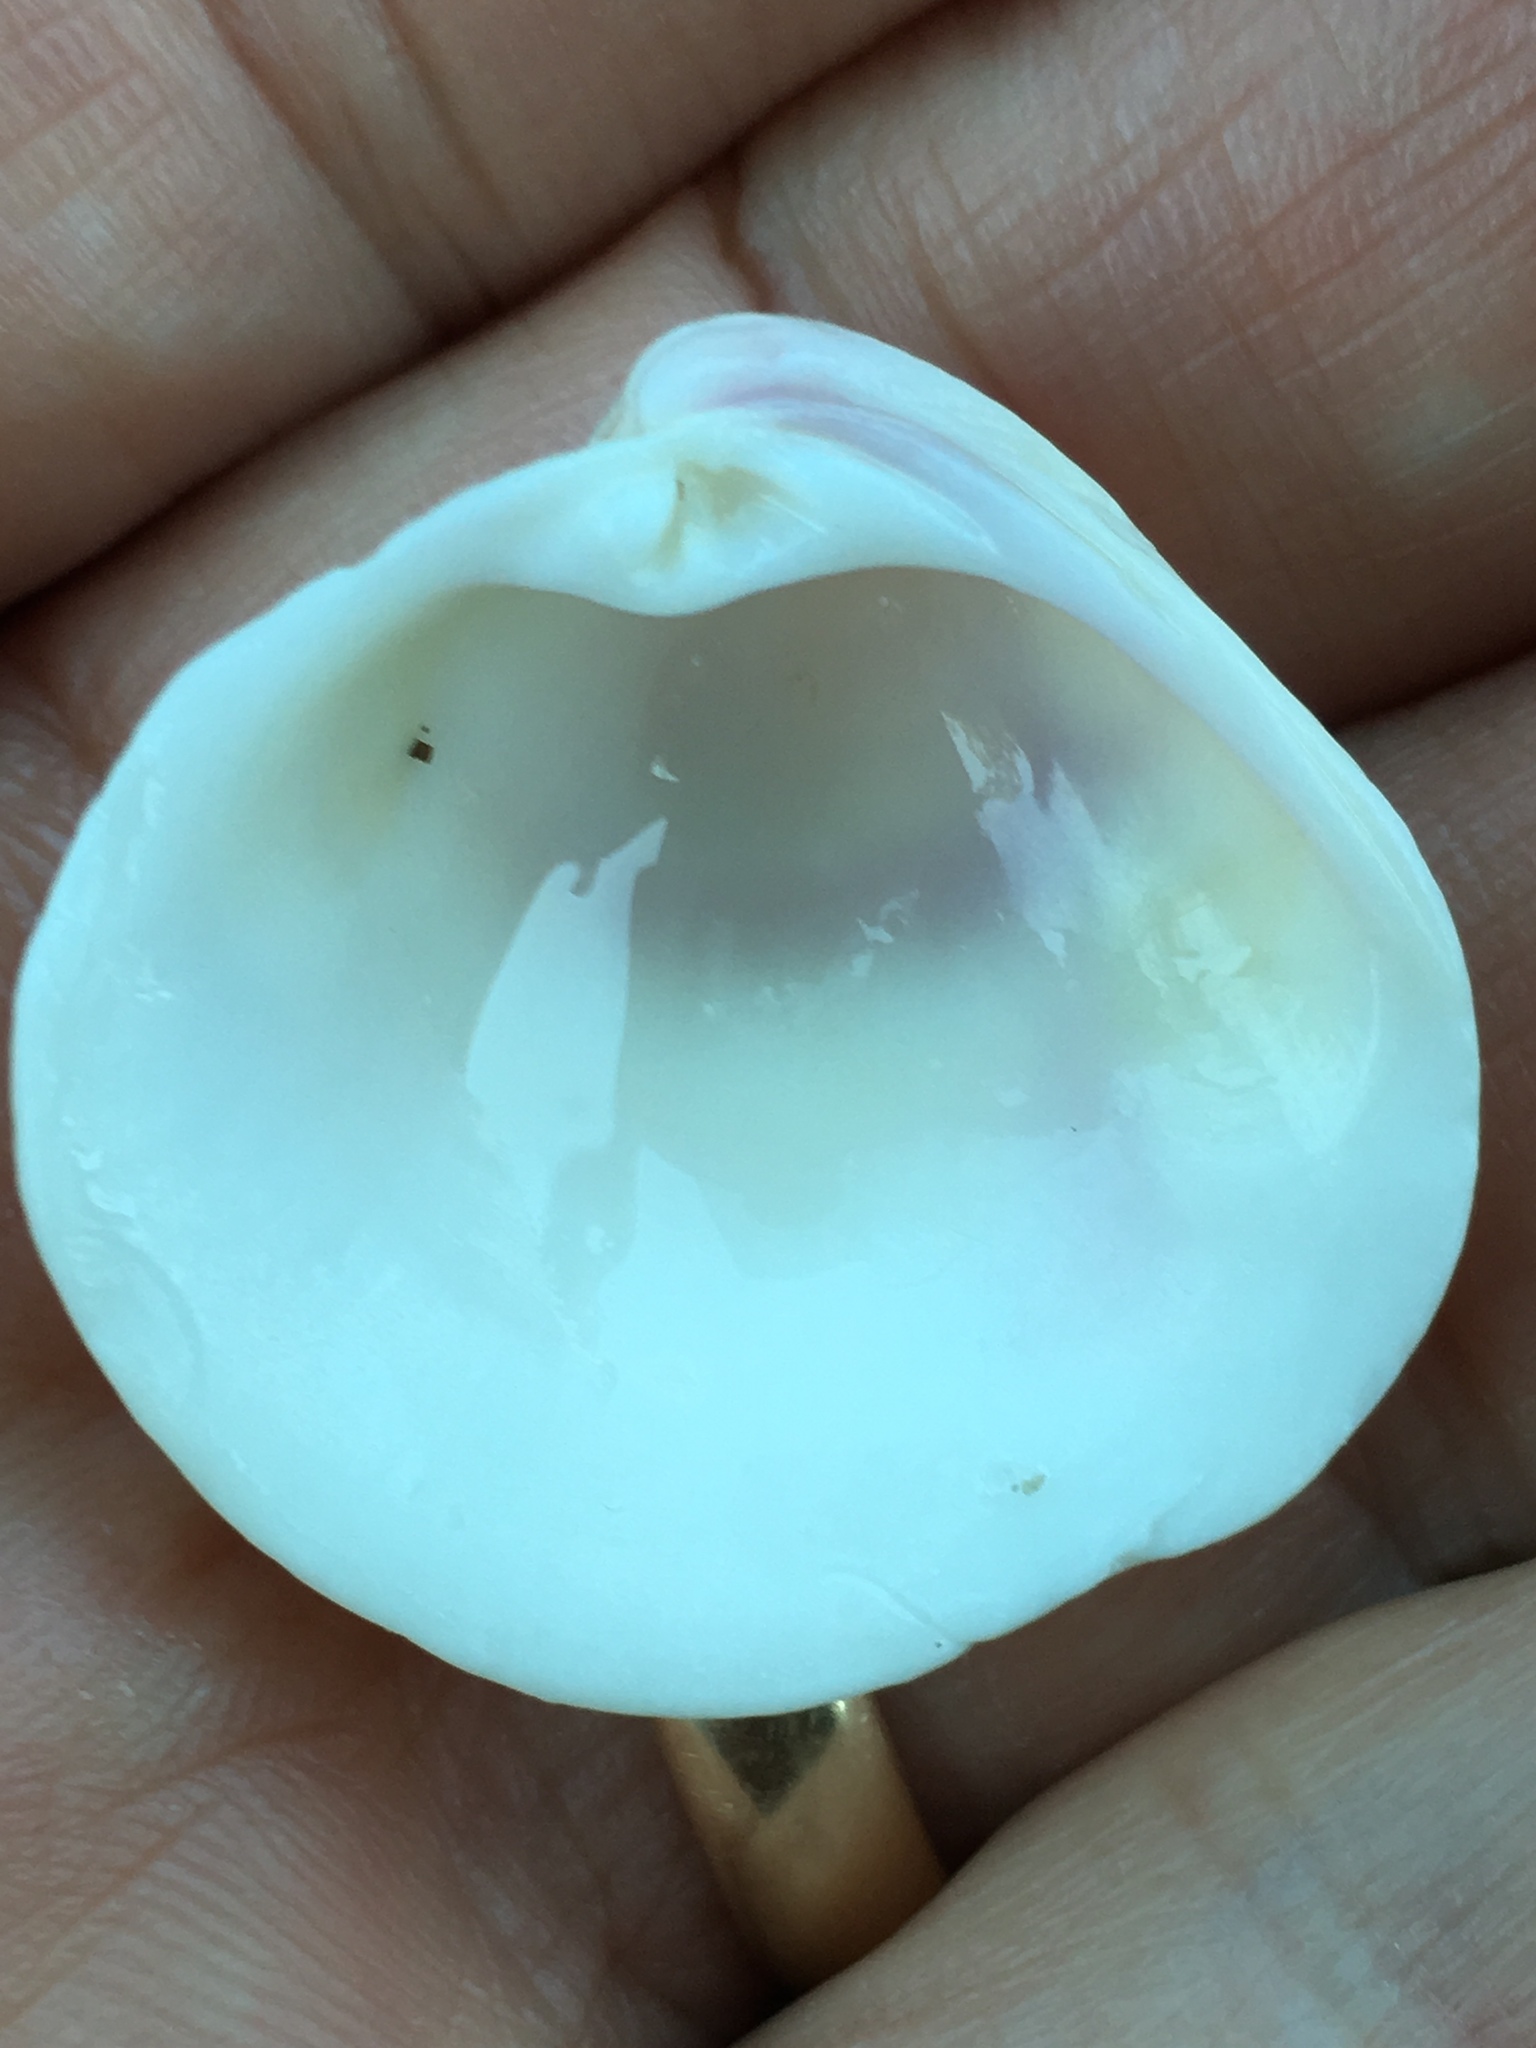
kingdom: Animalia
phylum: Mollusca
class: Bivalvia
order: Venerida
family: Veneridae
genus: Chionopsis
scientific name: Chionopsis intapurpurea
